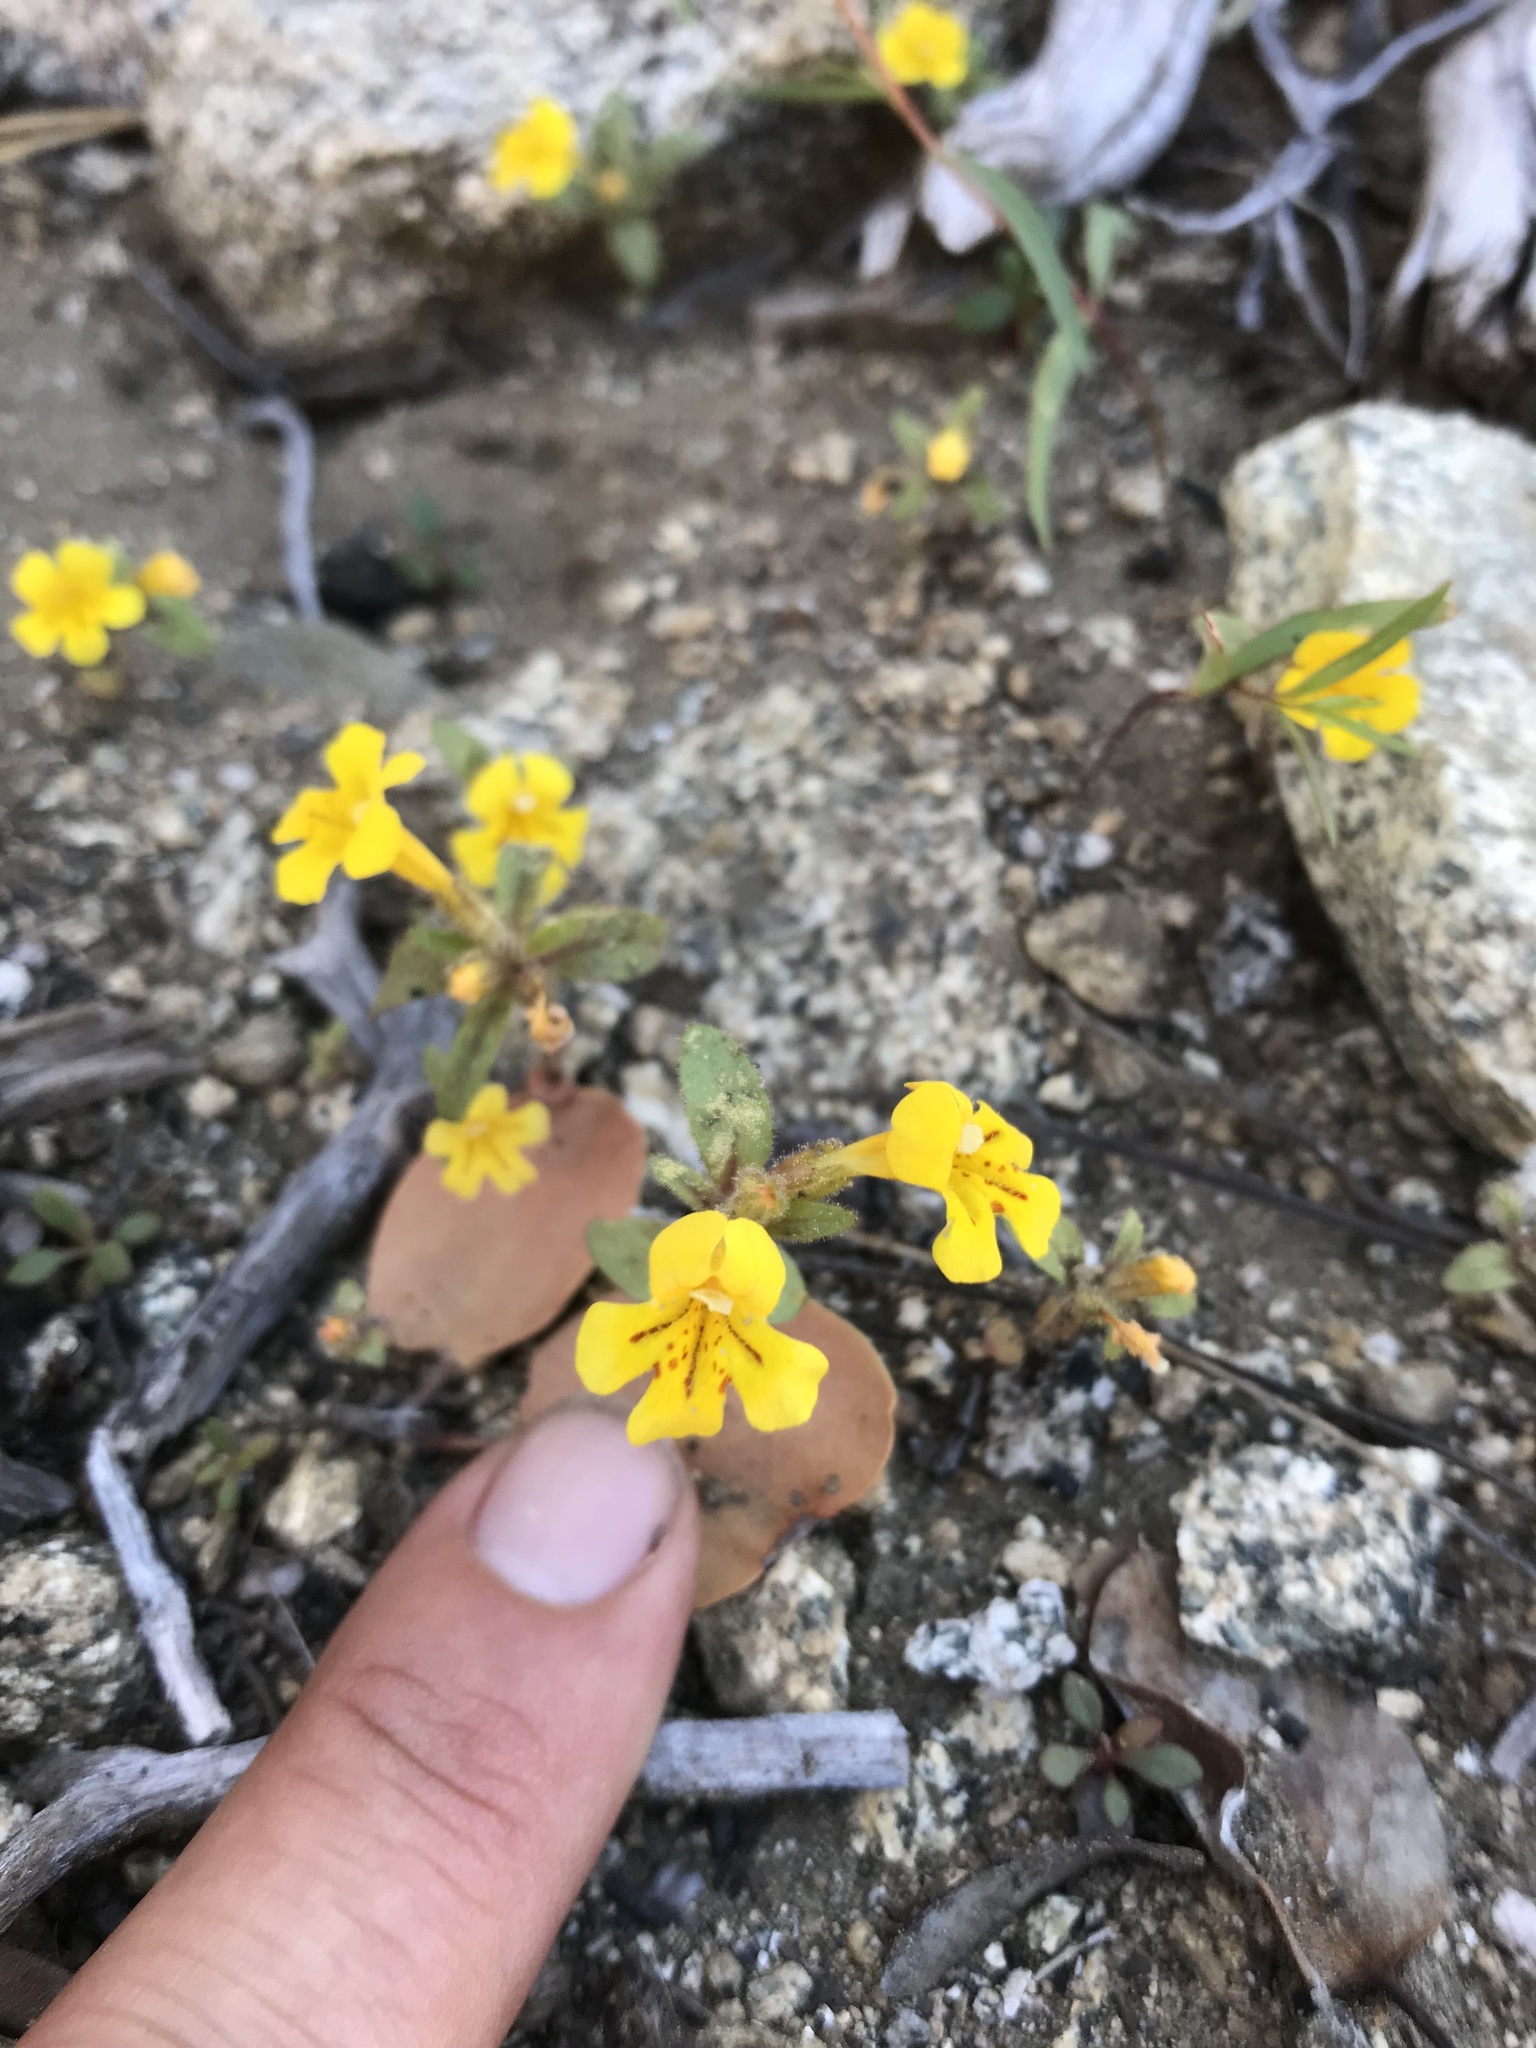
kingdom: Plantae
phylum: Tracheophyta
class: Magnoliopsida
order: Lamiales
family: Phrymaceae
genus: Diplacus
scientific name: Diplacus mephiticus
